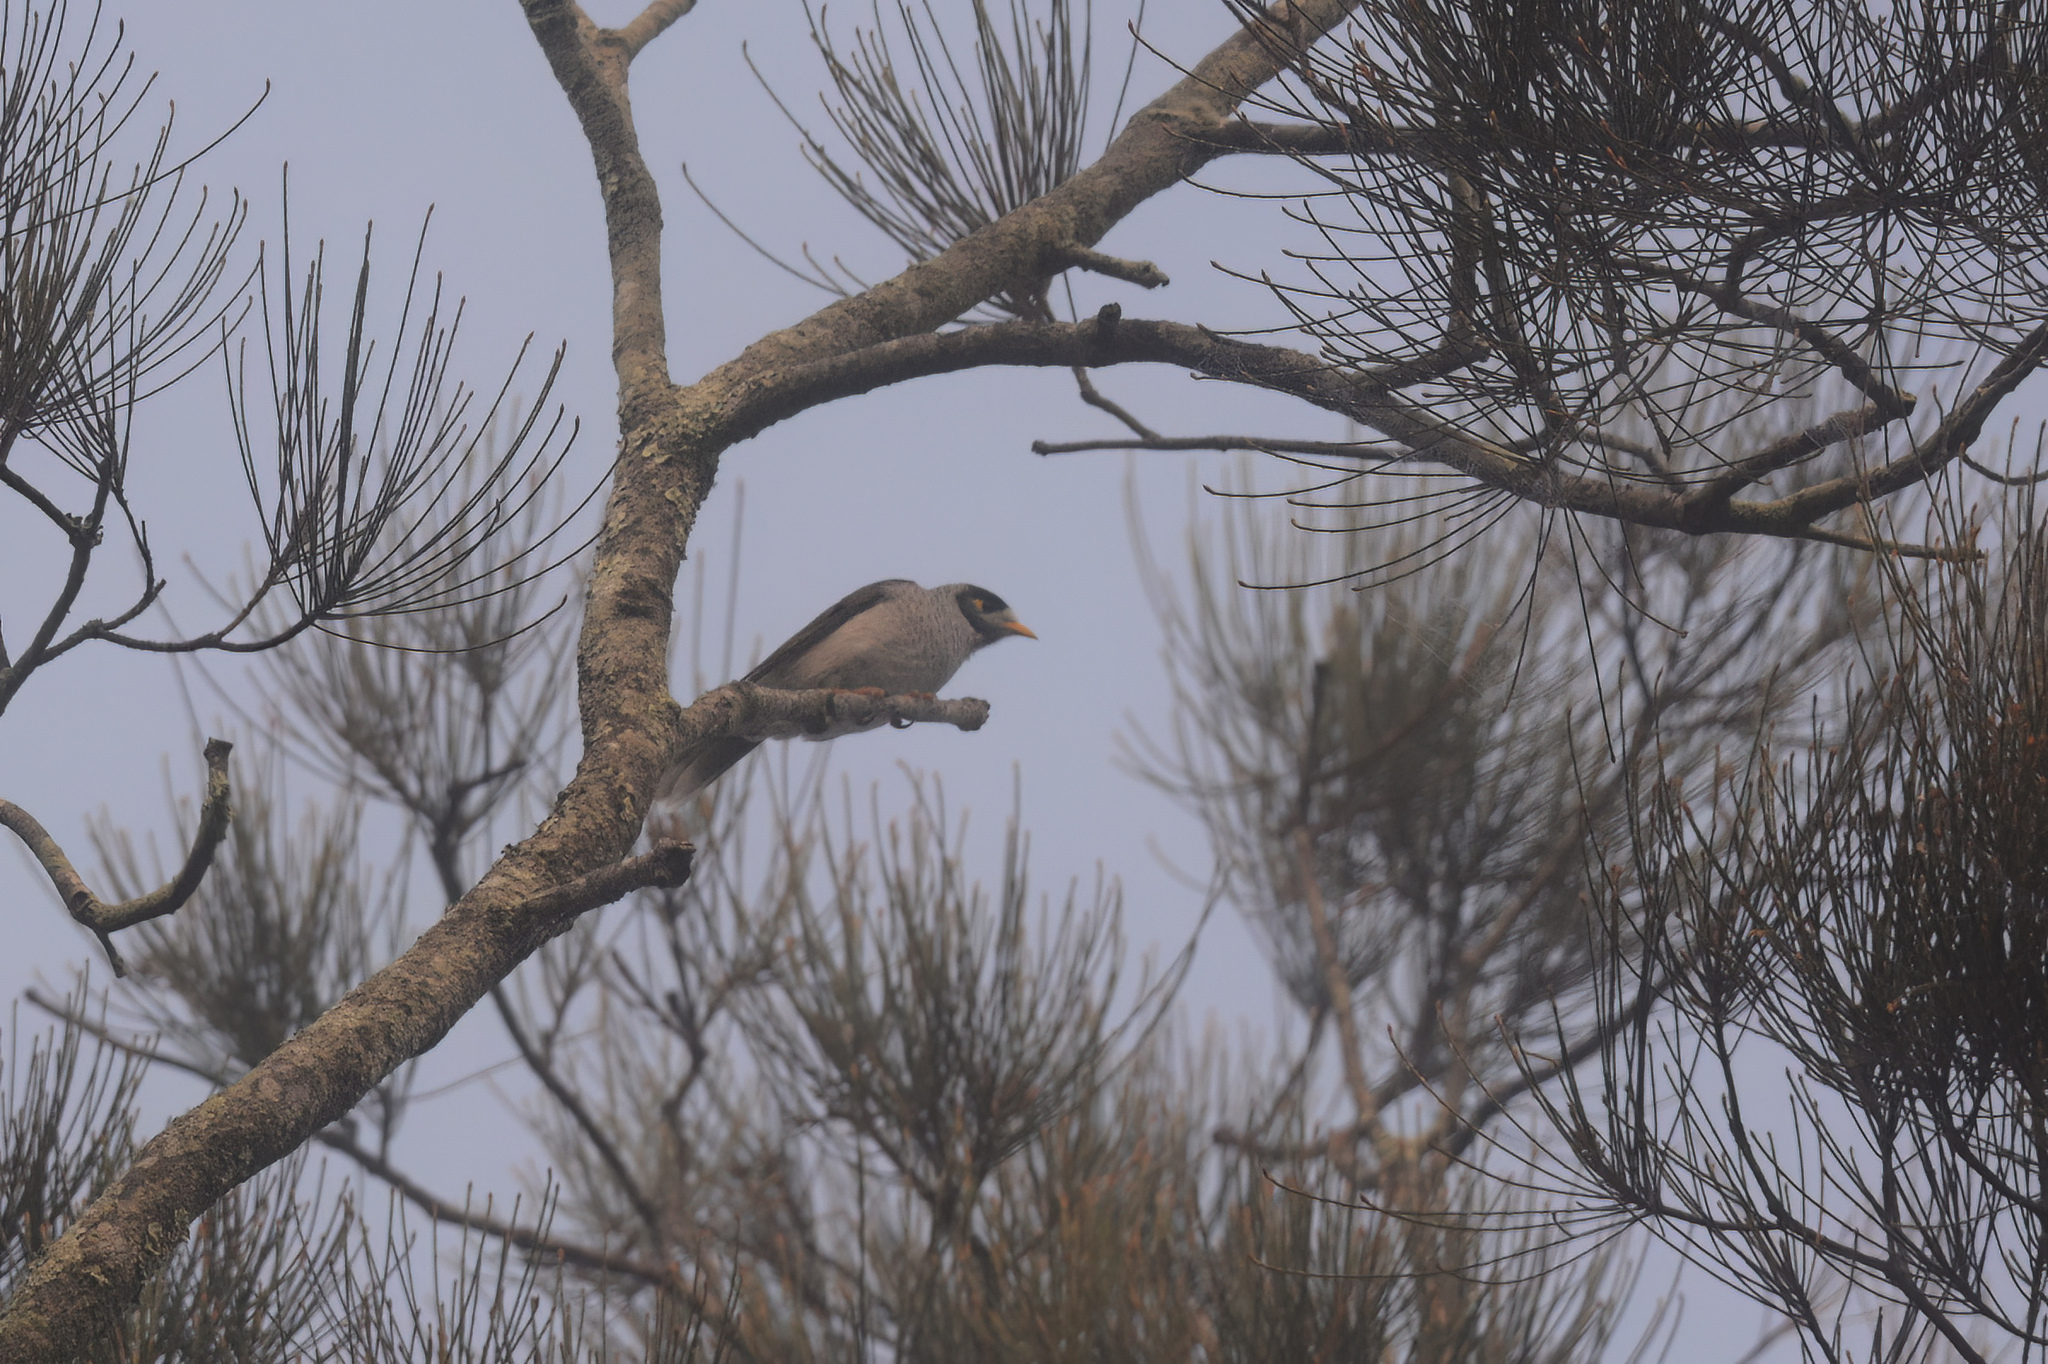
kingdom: Animalia
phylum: Chordata
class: Aves
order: Passeriformes
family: Meliphagidae
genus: Manorina
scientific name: Manorina melanocephala
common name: Noisy miner
